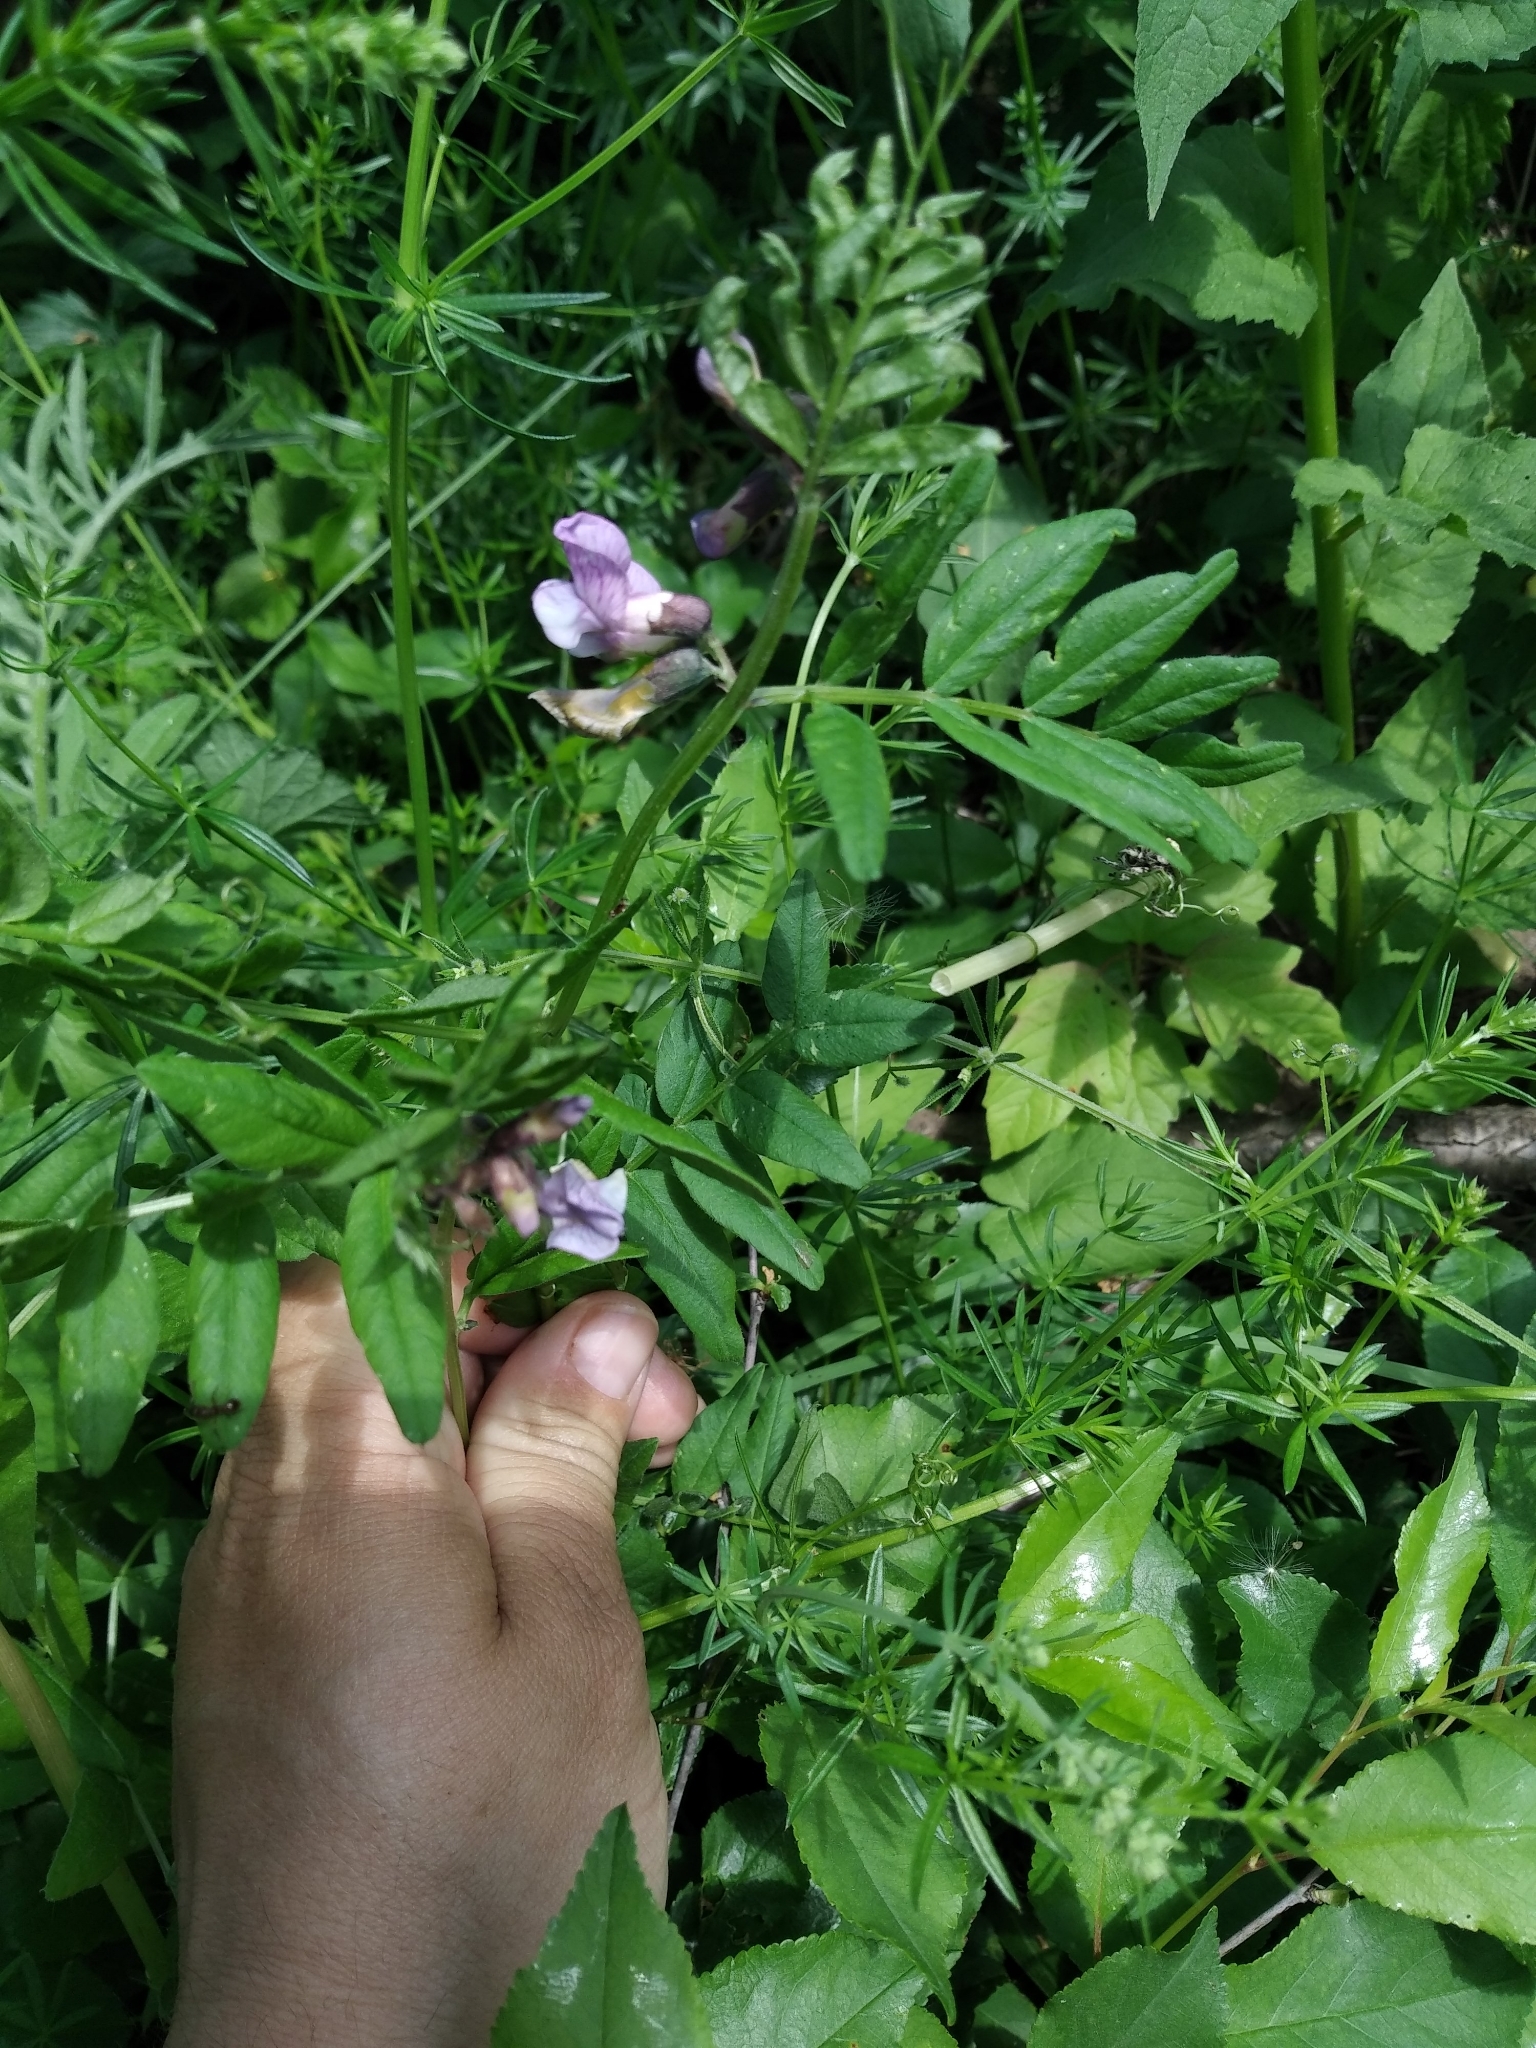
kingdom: Plantae
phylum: Tracheophyta
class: Magnoliopsida
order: Fabales
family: Fabaceae
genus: Vicia
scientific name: Vicia sepium
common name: Bush vetch
